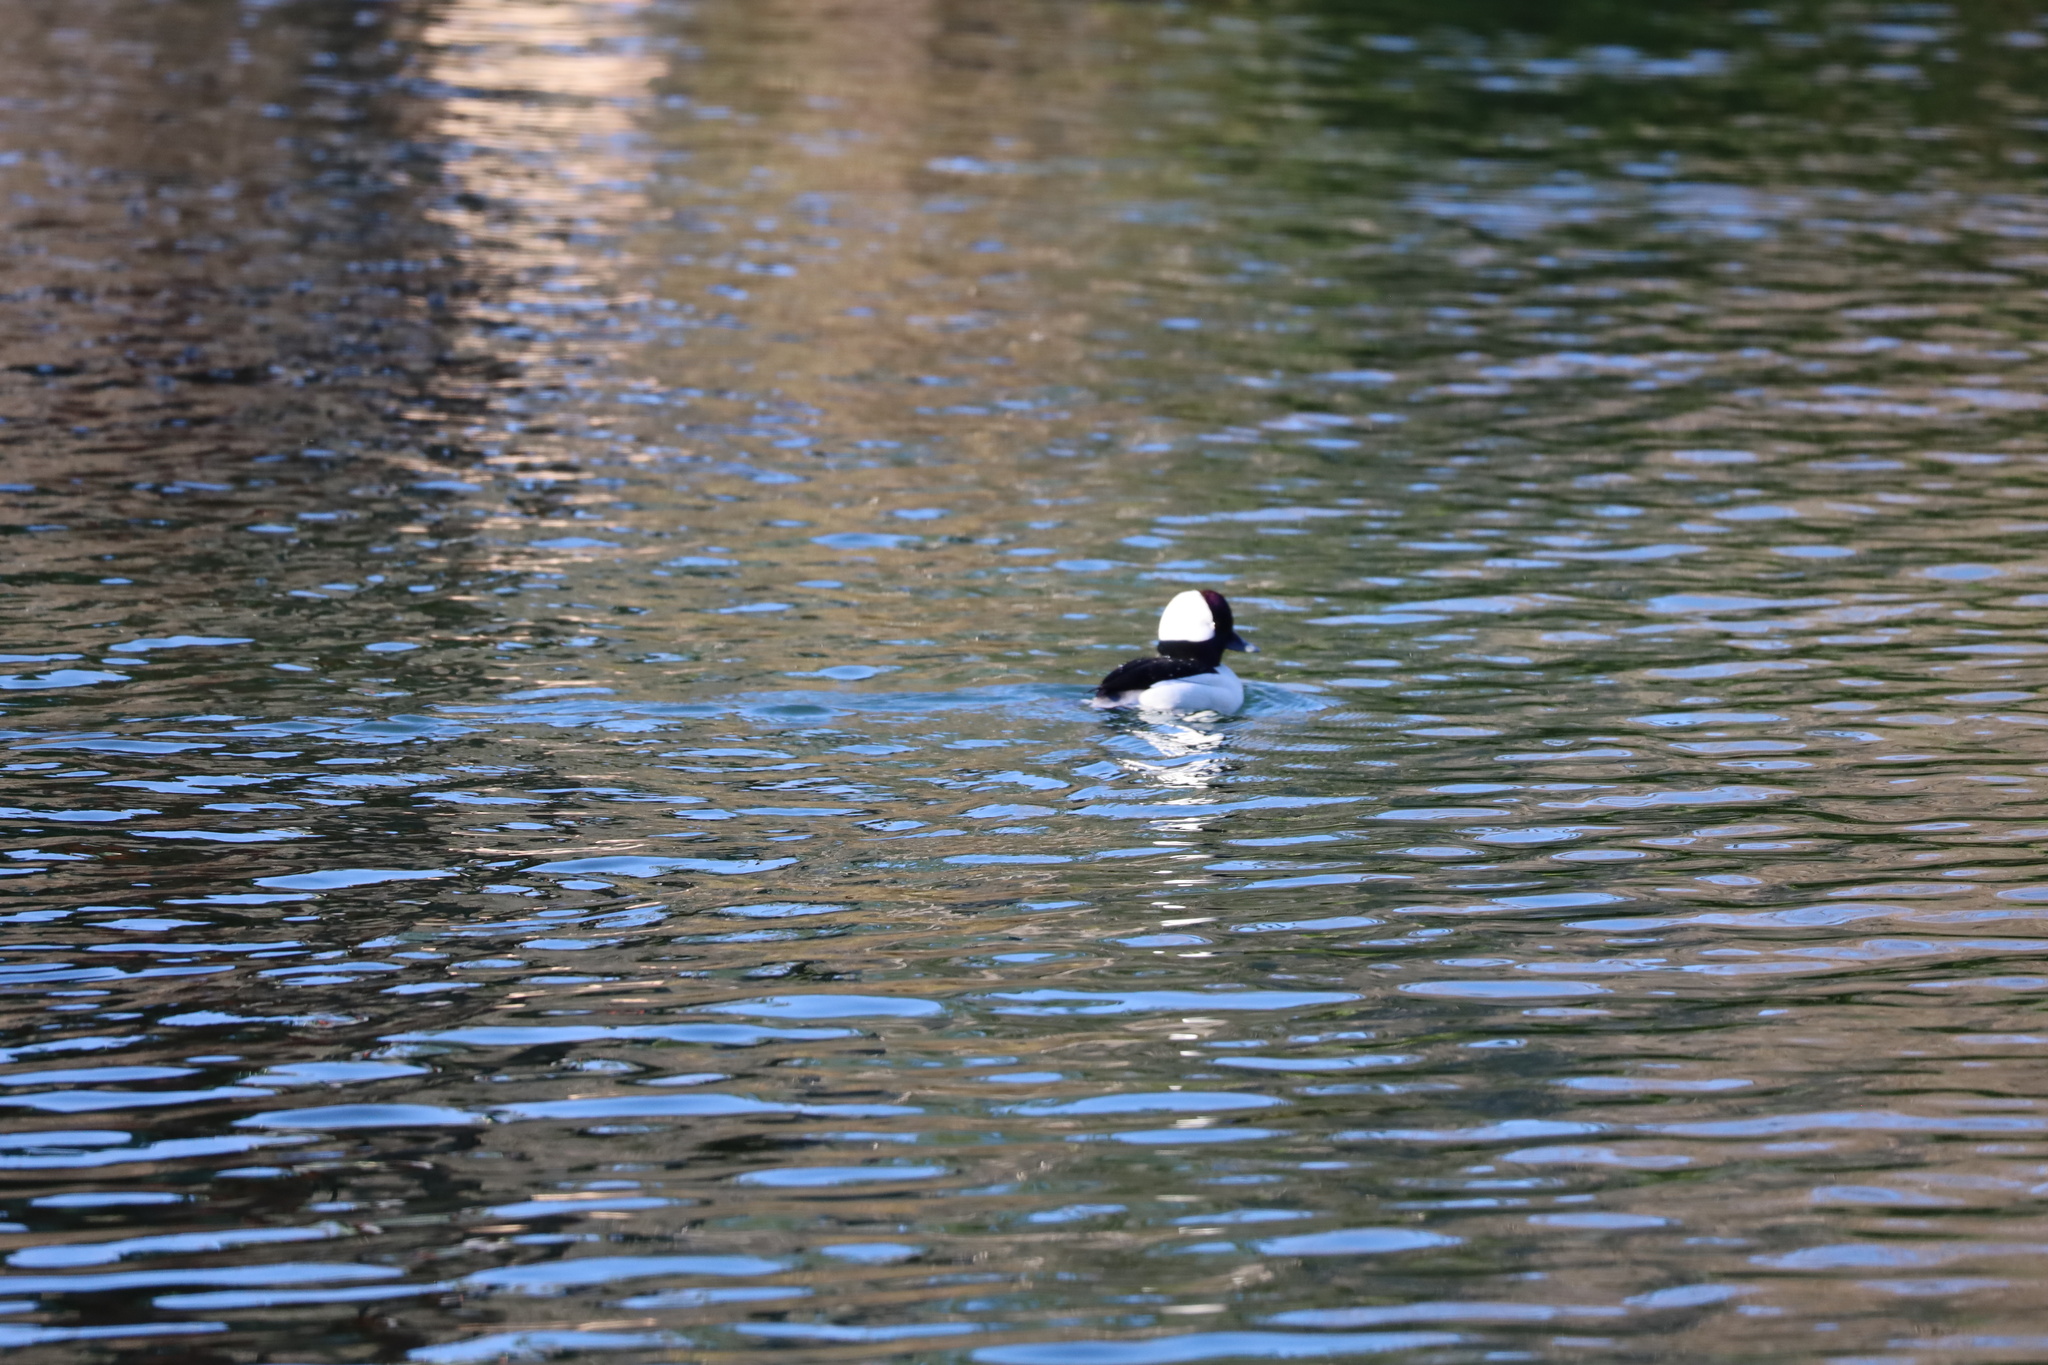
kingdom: Animalia
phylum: Chordata
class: Aves
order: Anseriformes
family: Anatidae
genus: Bucephala
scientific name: Bucephala albeola
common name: Bufflehead
